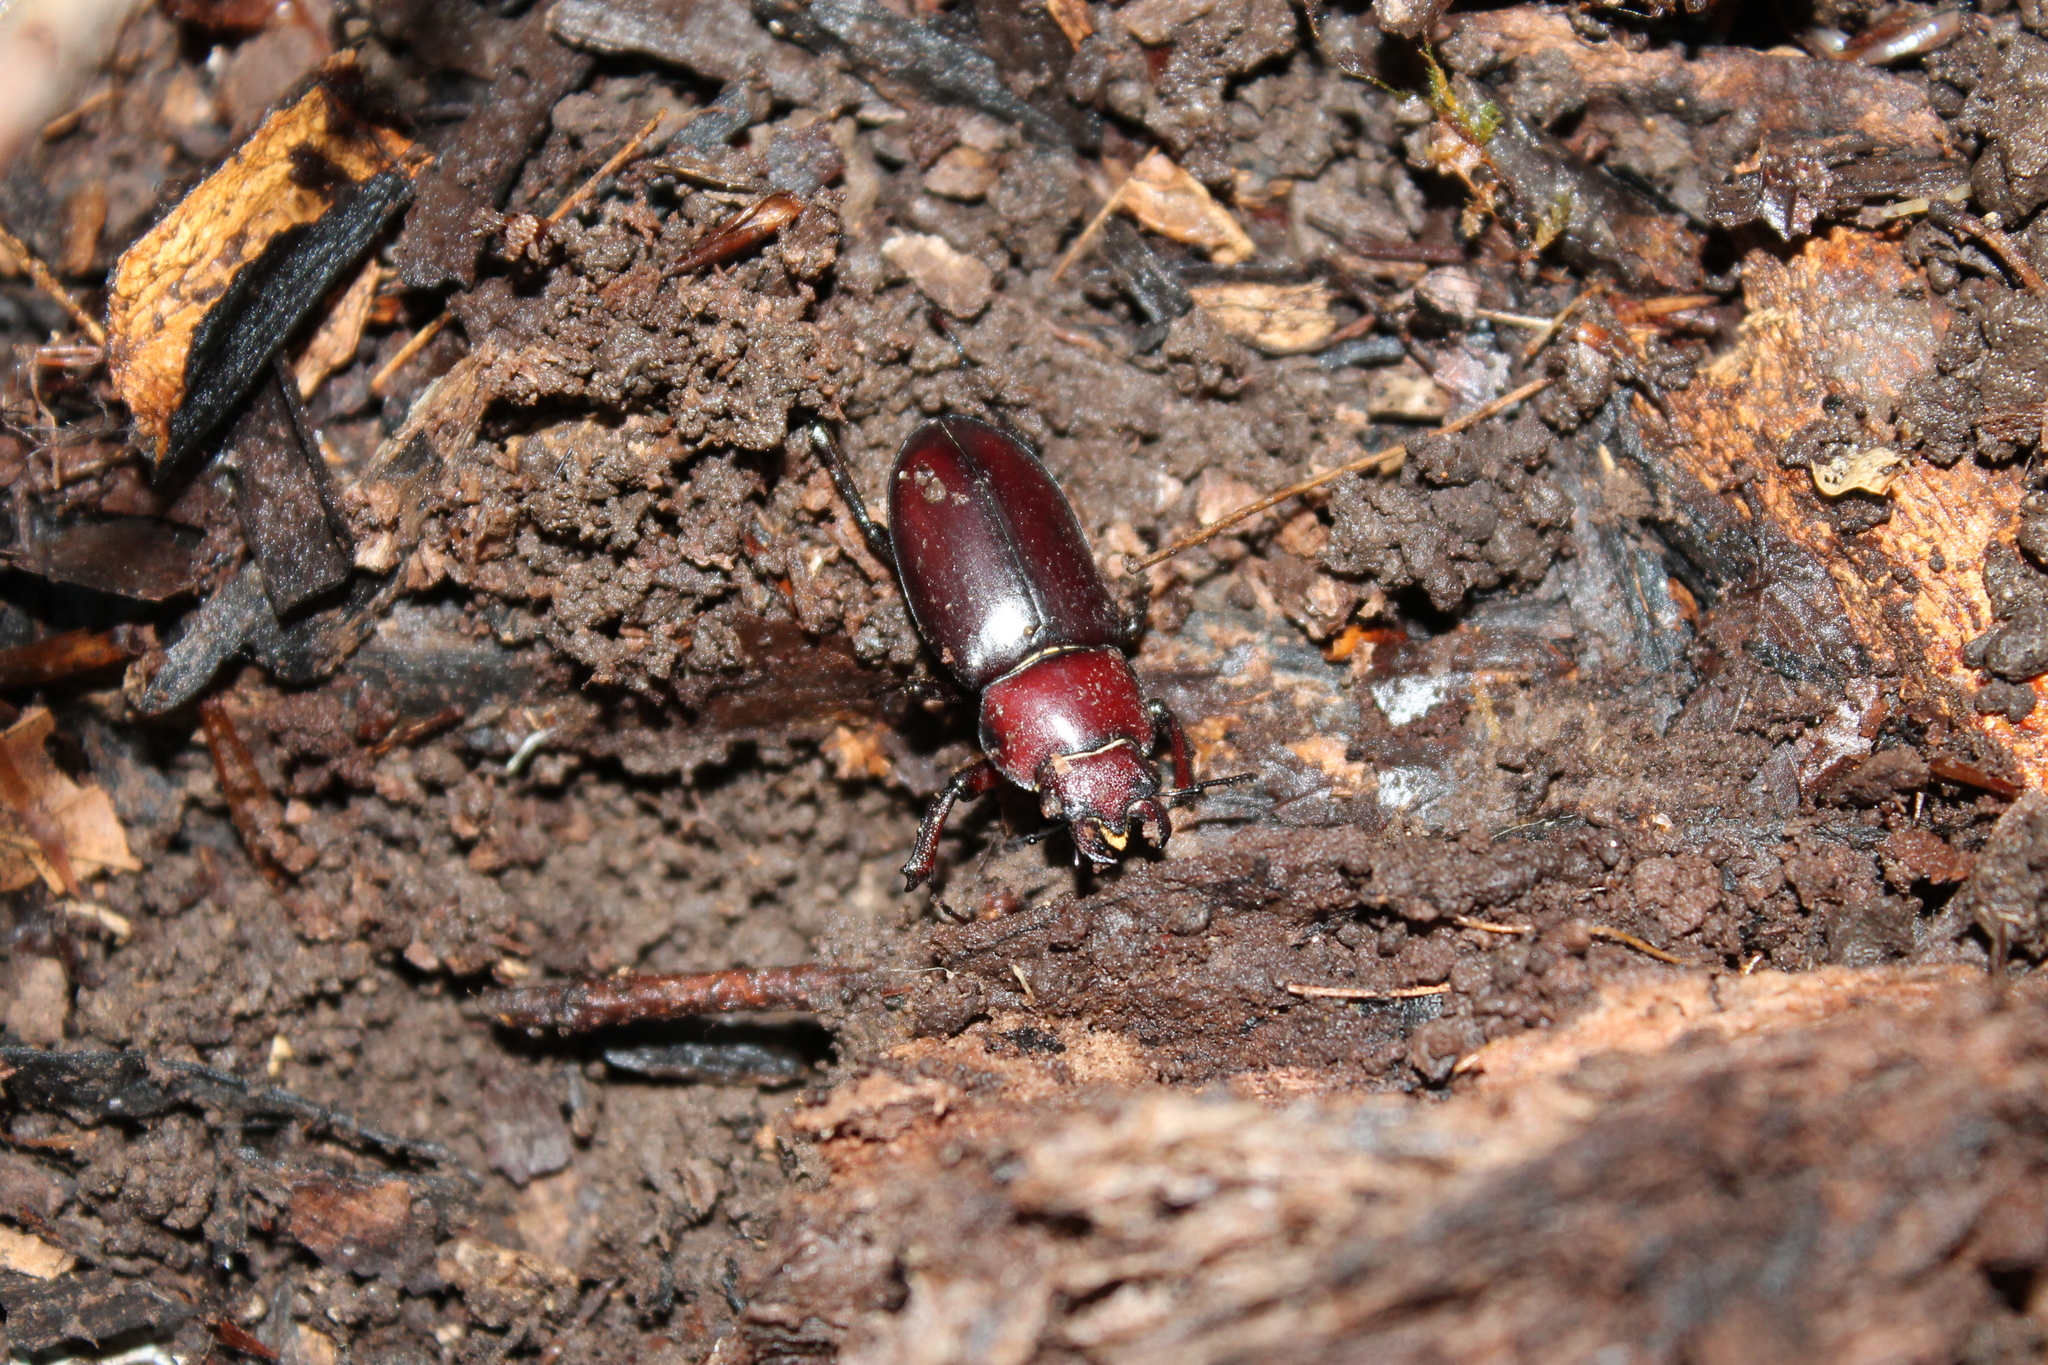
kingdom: Animalia
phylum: Arthropoda
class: Insecta
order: Coleoptera
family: Lucanidae
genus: Lucanus
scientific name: Lucanus elaphus
